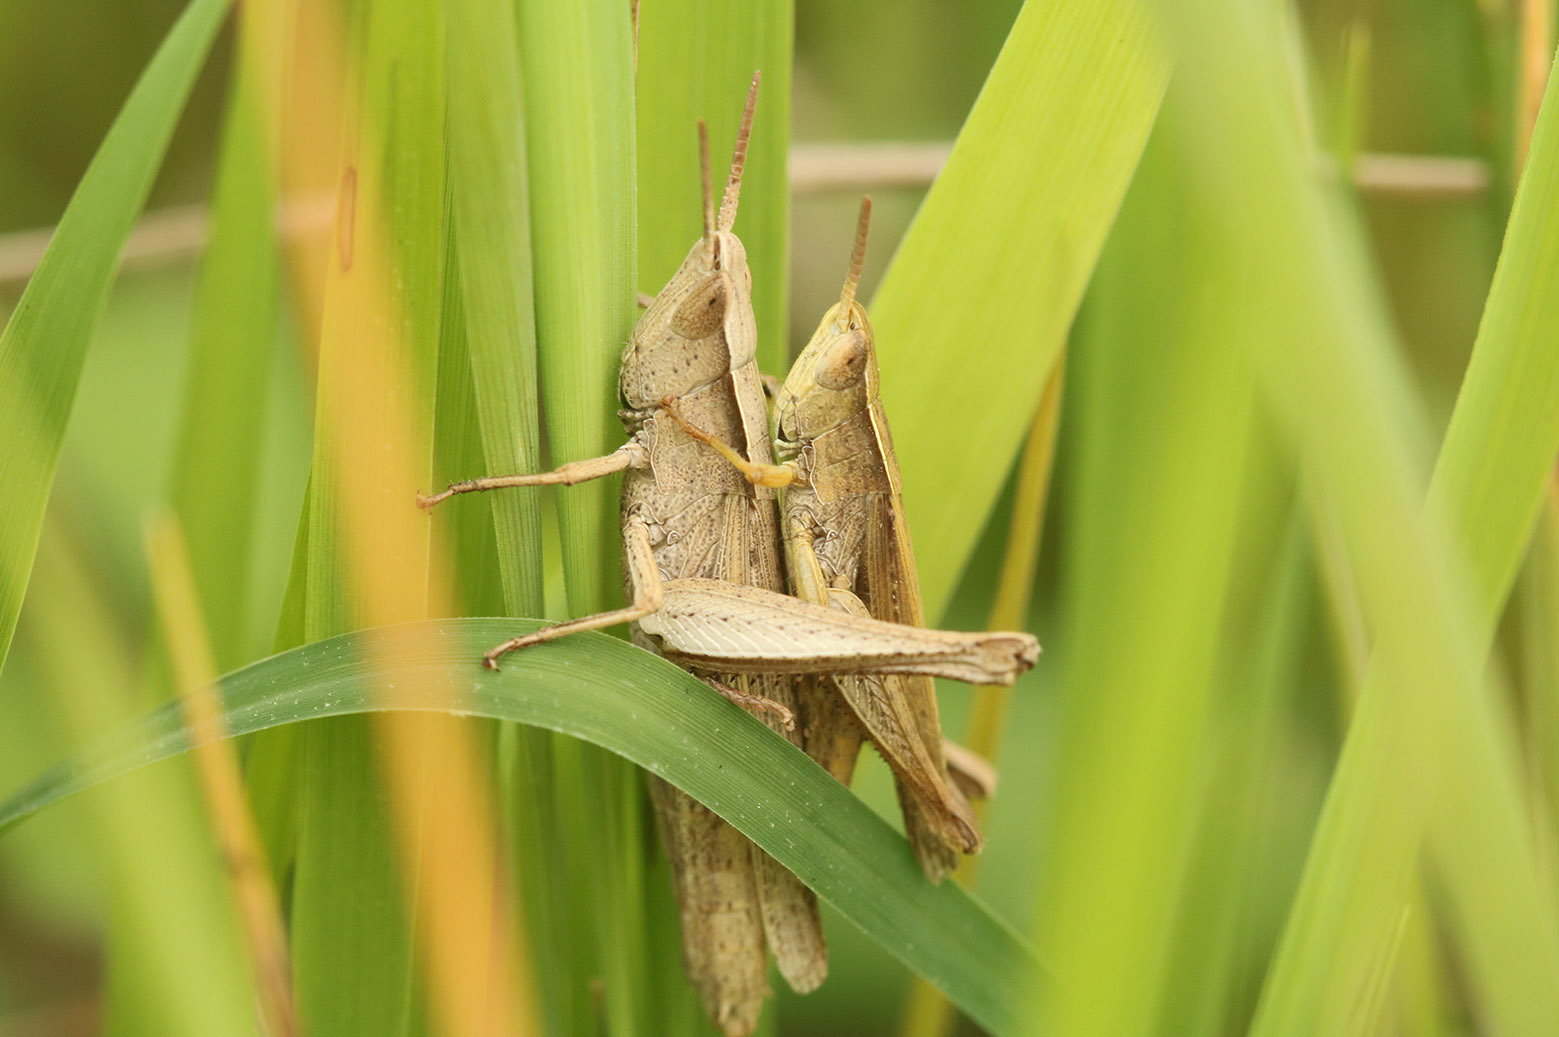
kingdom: Animalia
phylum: Arthropoda
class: Insecta
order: Orthoptera
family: Acrididae
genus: Laplatacris
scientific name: Laplatacris dispar
